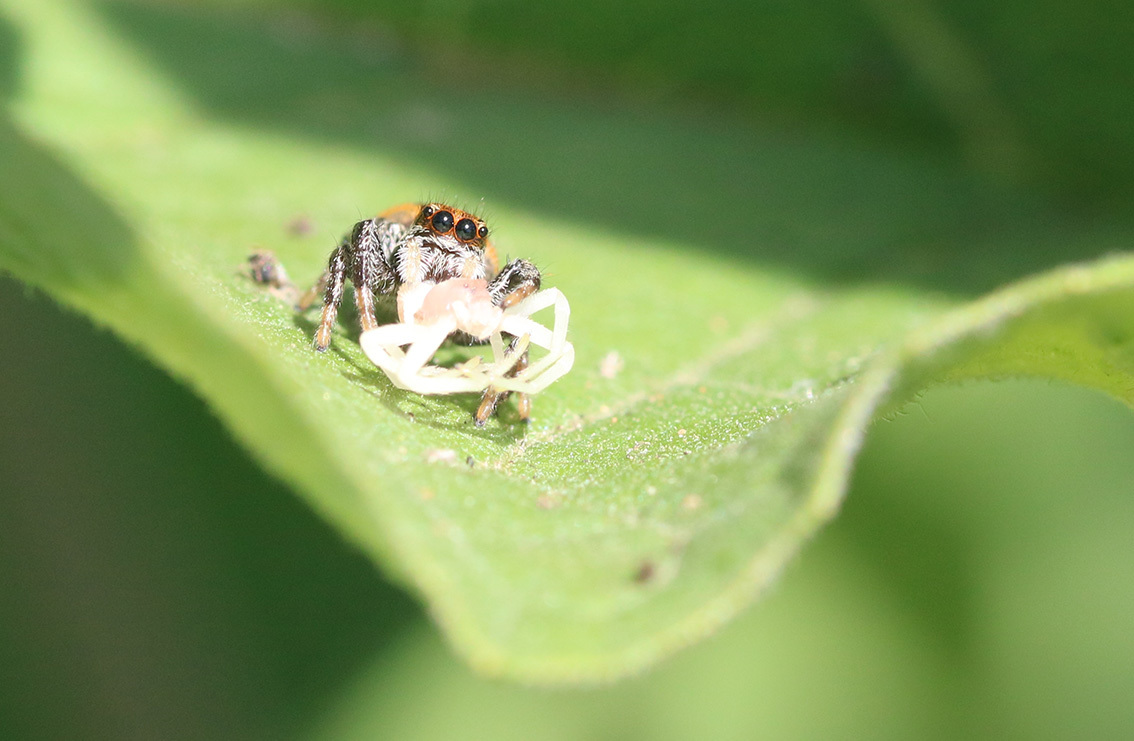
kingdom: Animalia
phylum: Arthropoda
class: Arachnida
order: Araneae
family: Salticidae
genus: Phiale
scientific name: Phiale roburifoliata
